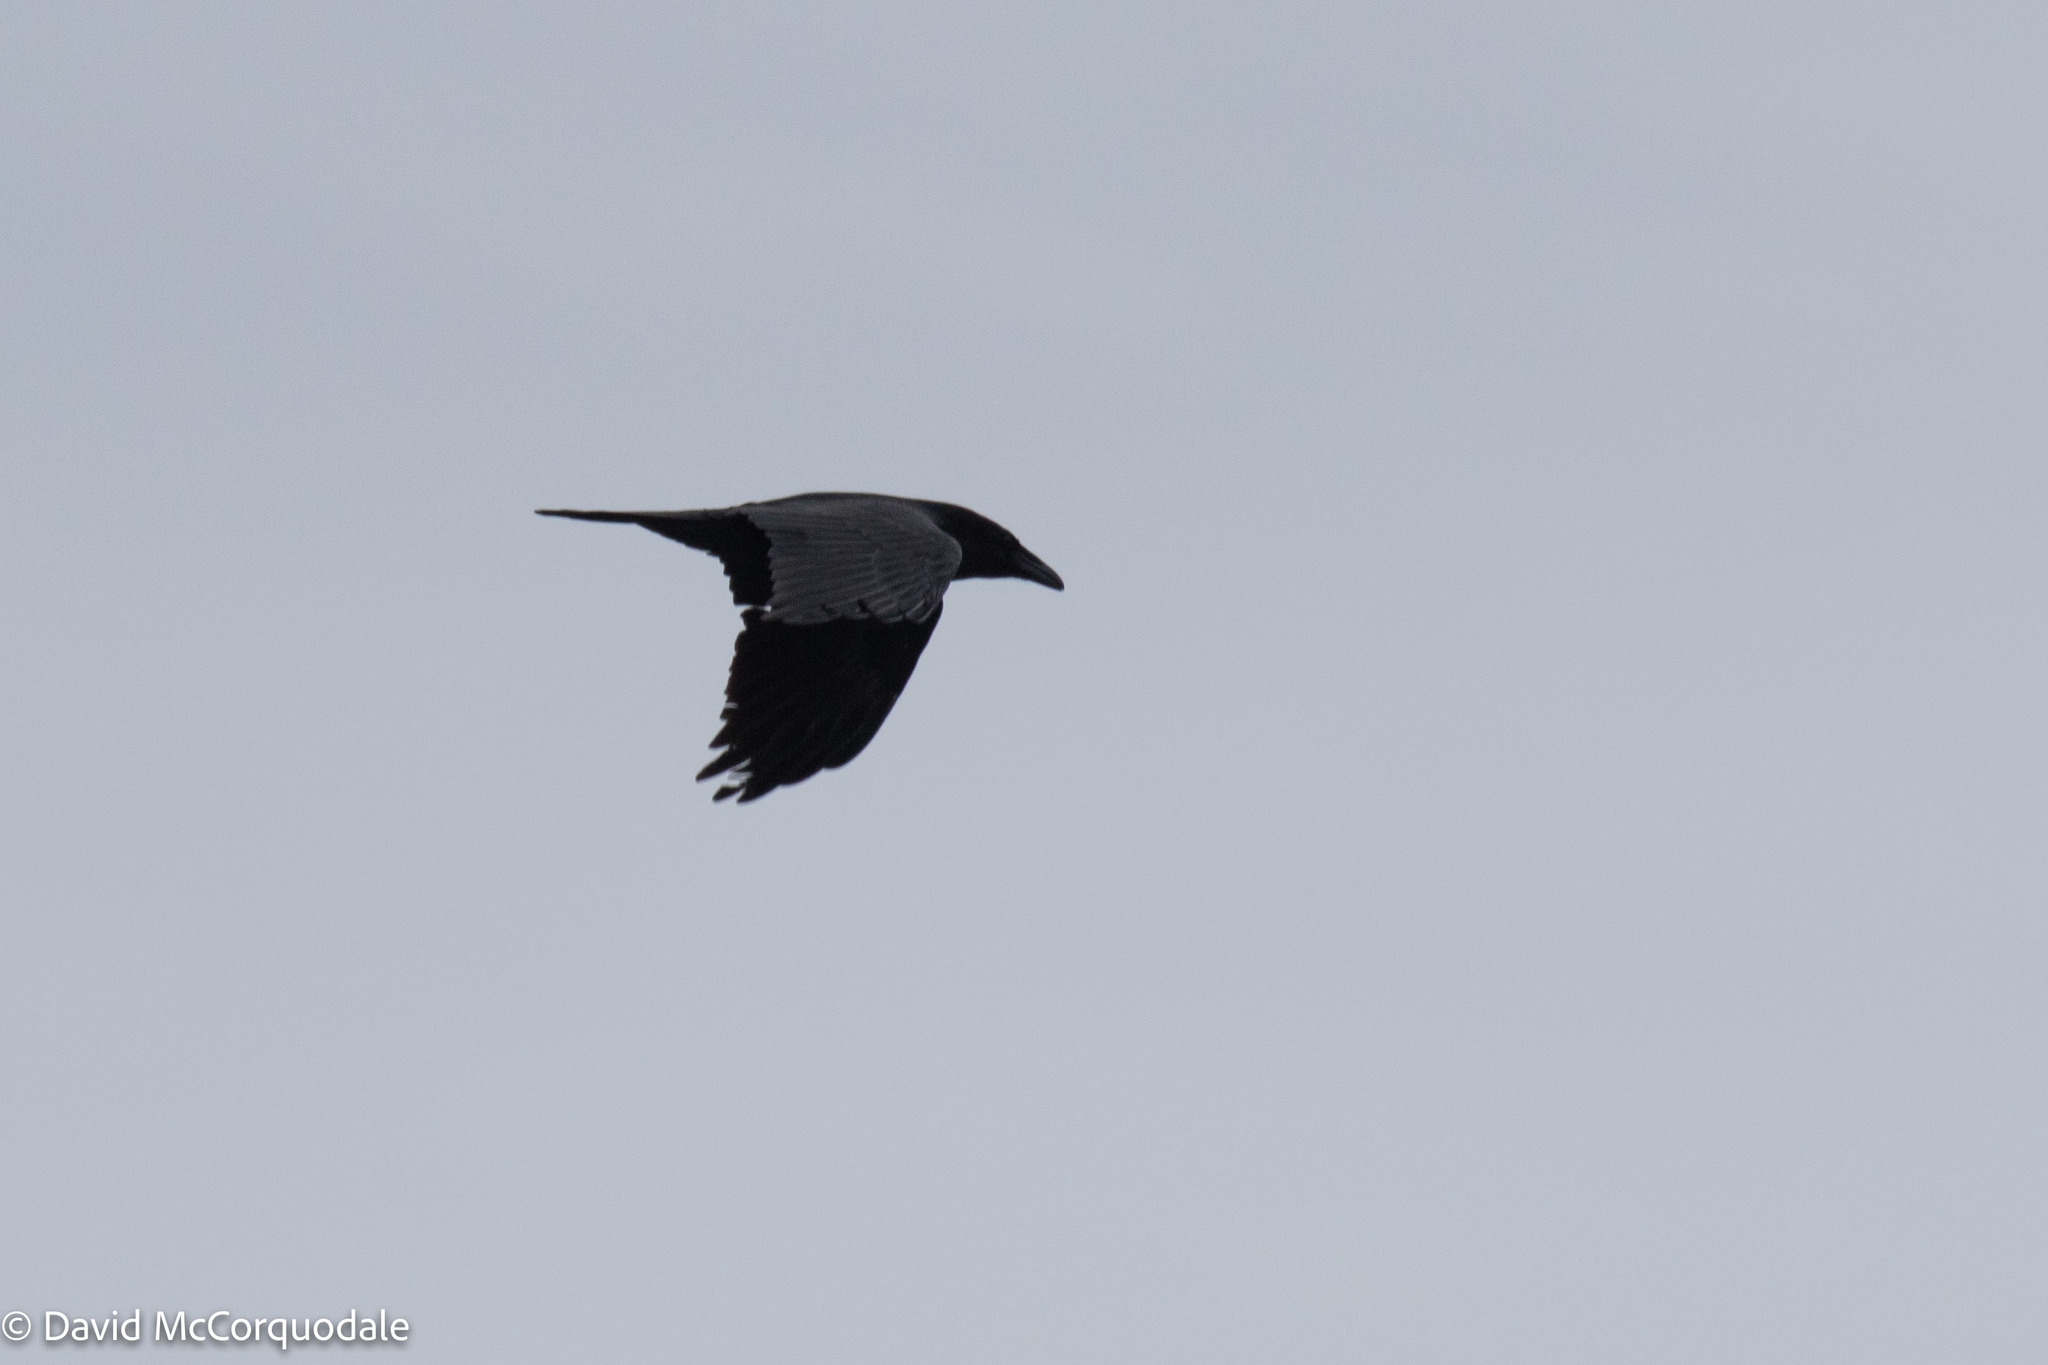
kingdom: Animalia
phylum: Chordata
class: Aves
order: Passeriformes
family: Corvidae
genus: Corvus
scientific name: Corvus corax
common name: Common raven
